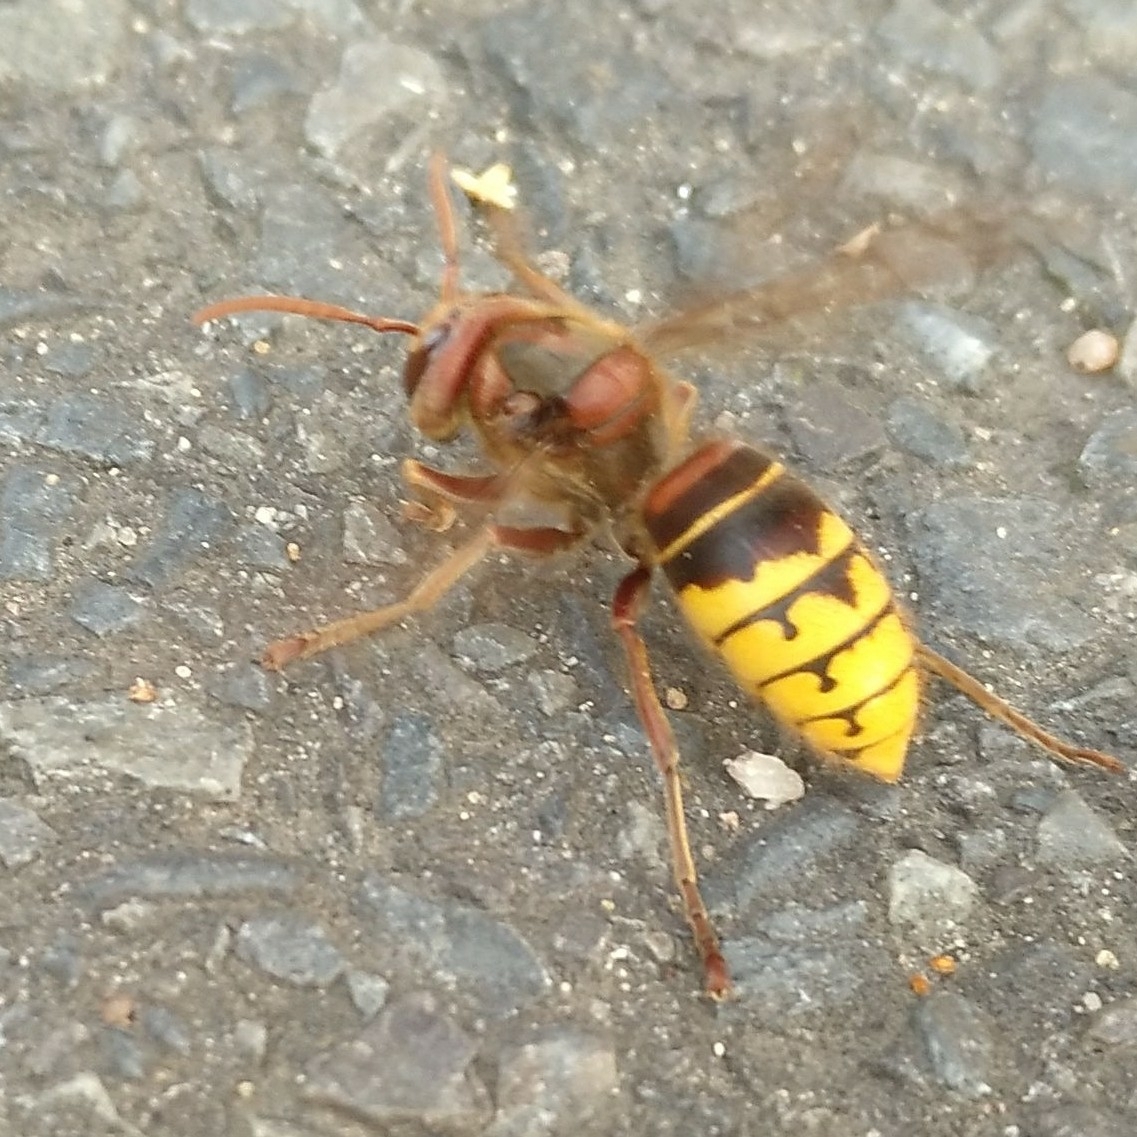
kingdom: Animalia
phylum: Arthropoda
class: Insecta
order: Hymenoptera
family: Vespidae
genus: Vespa
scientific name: Vespa crabro
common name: Hornet
